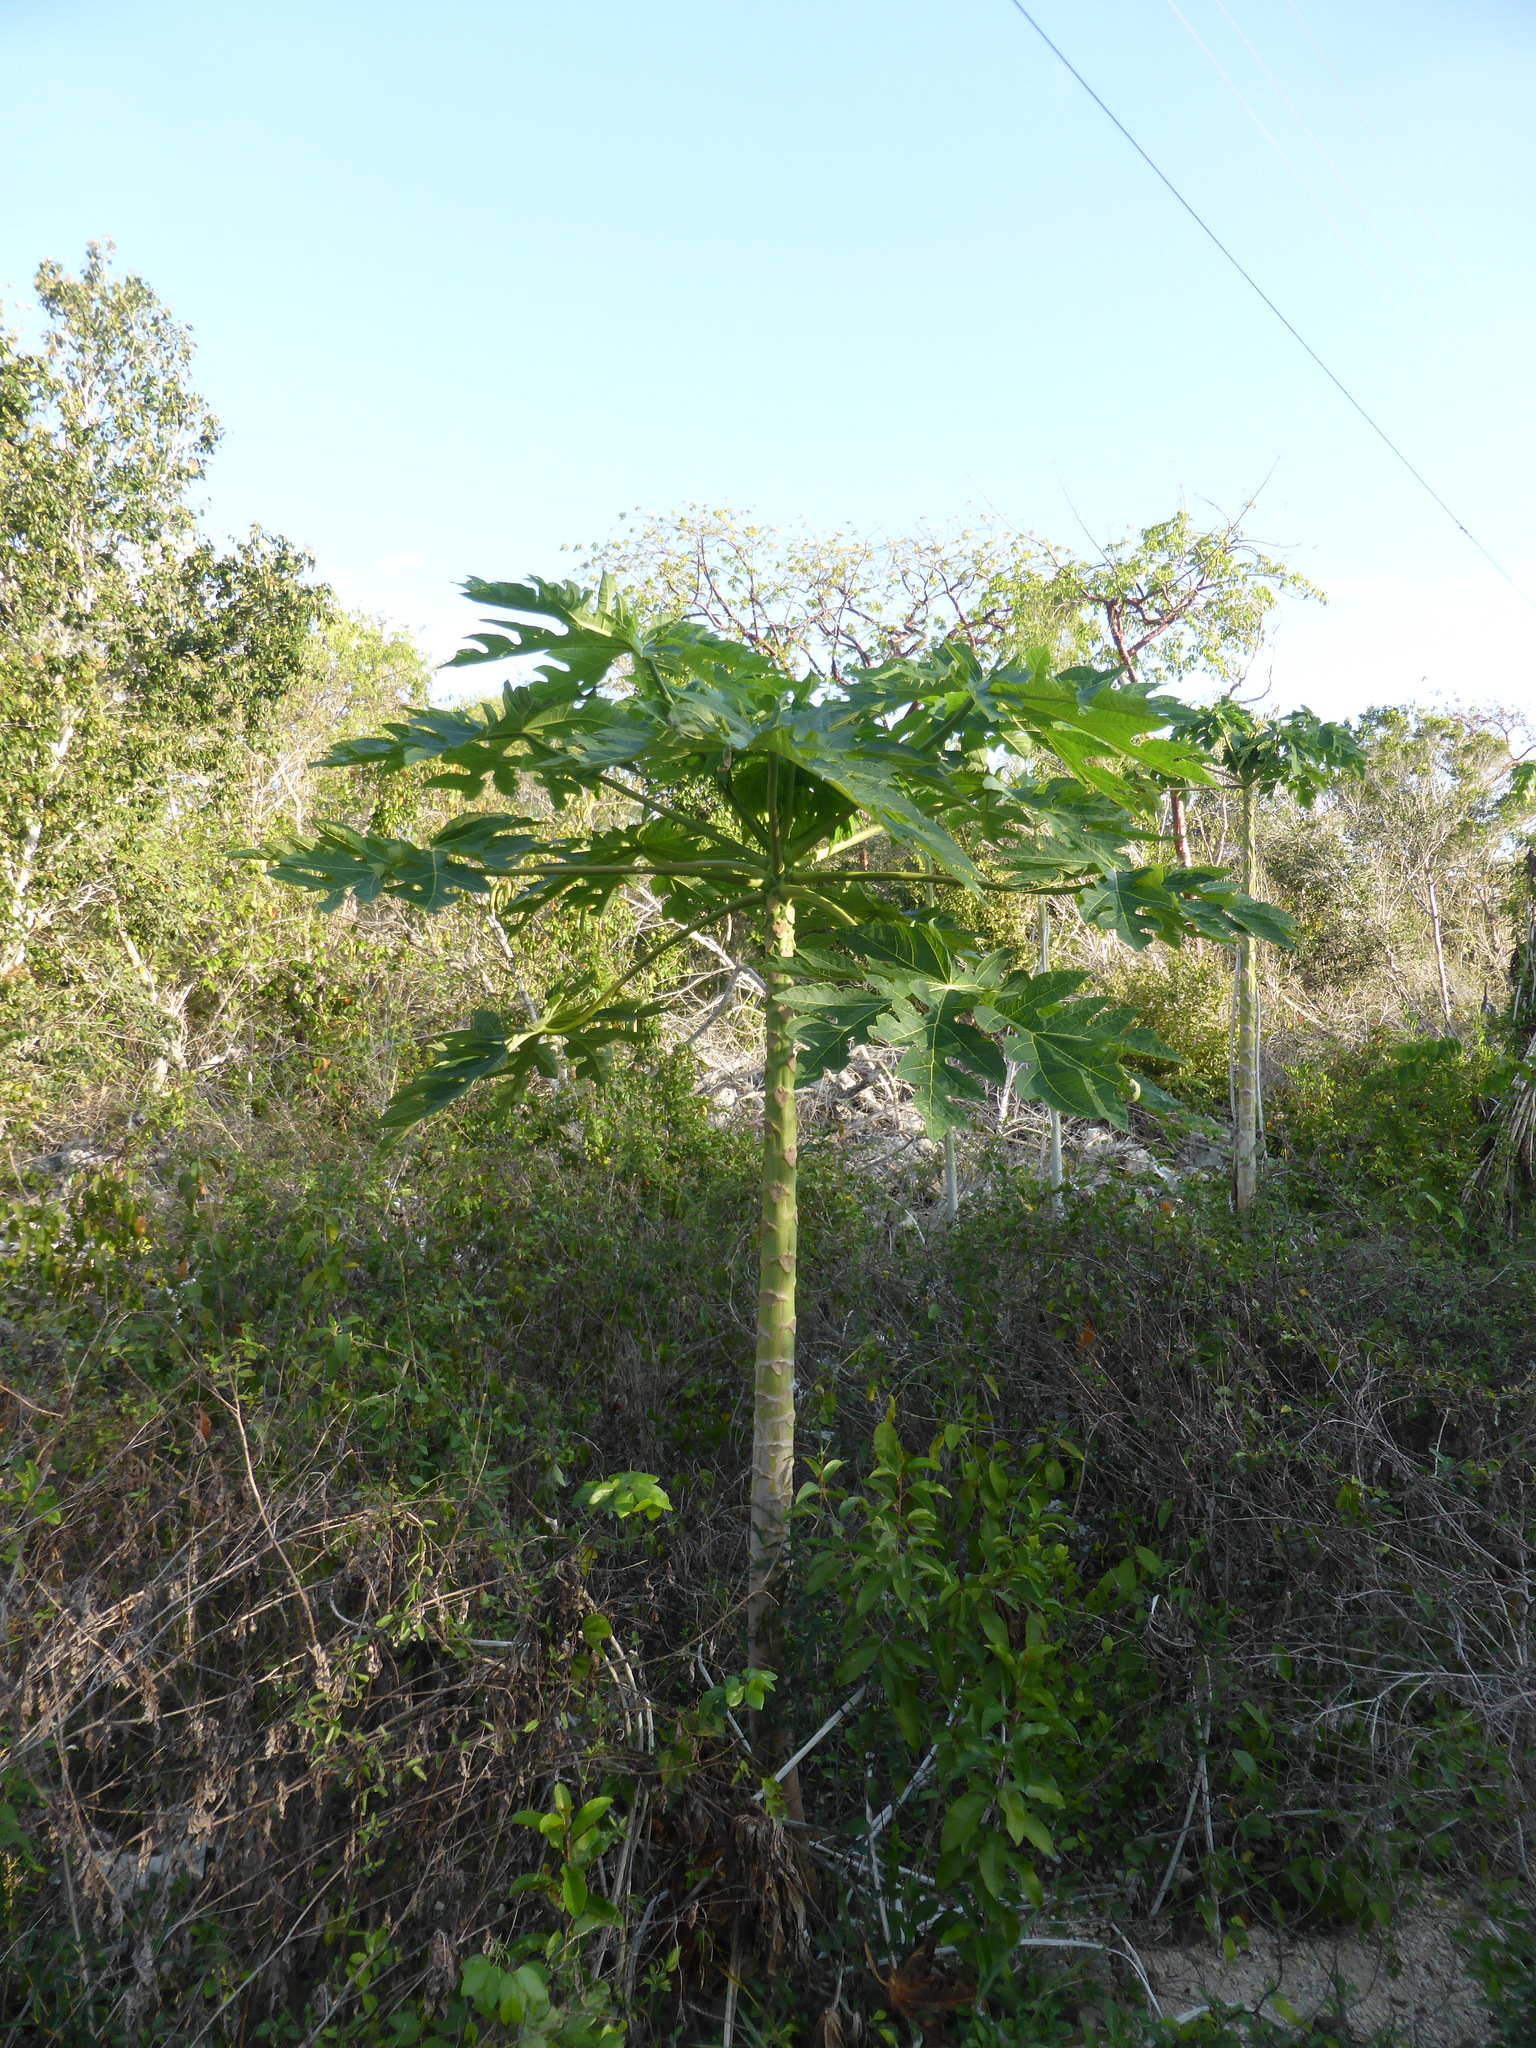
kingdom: Plantae
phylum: Tracheophyta
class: Magnoliopsida
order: Brassicales
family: Caricaceae
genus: Carica
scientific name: Carica papaya
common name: Papaya
